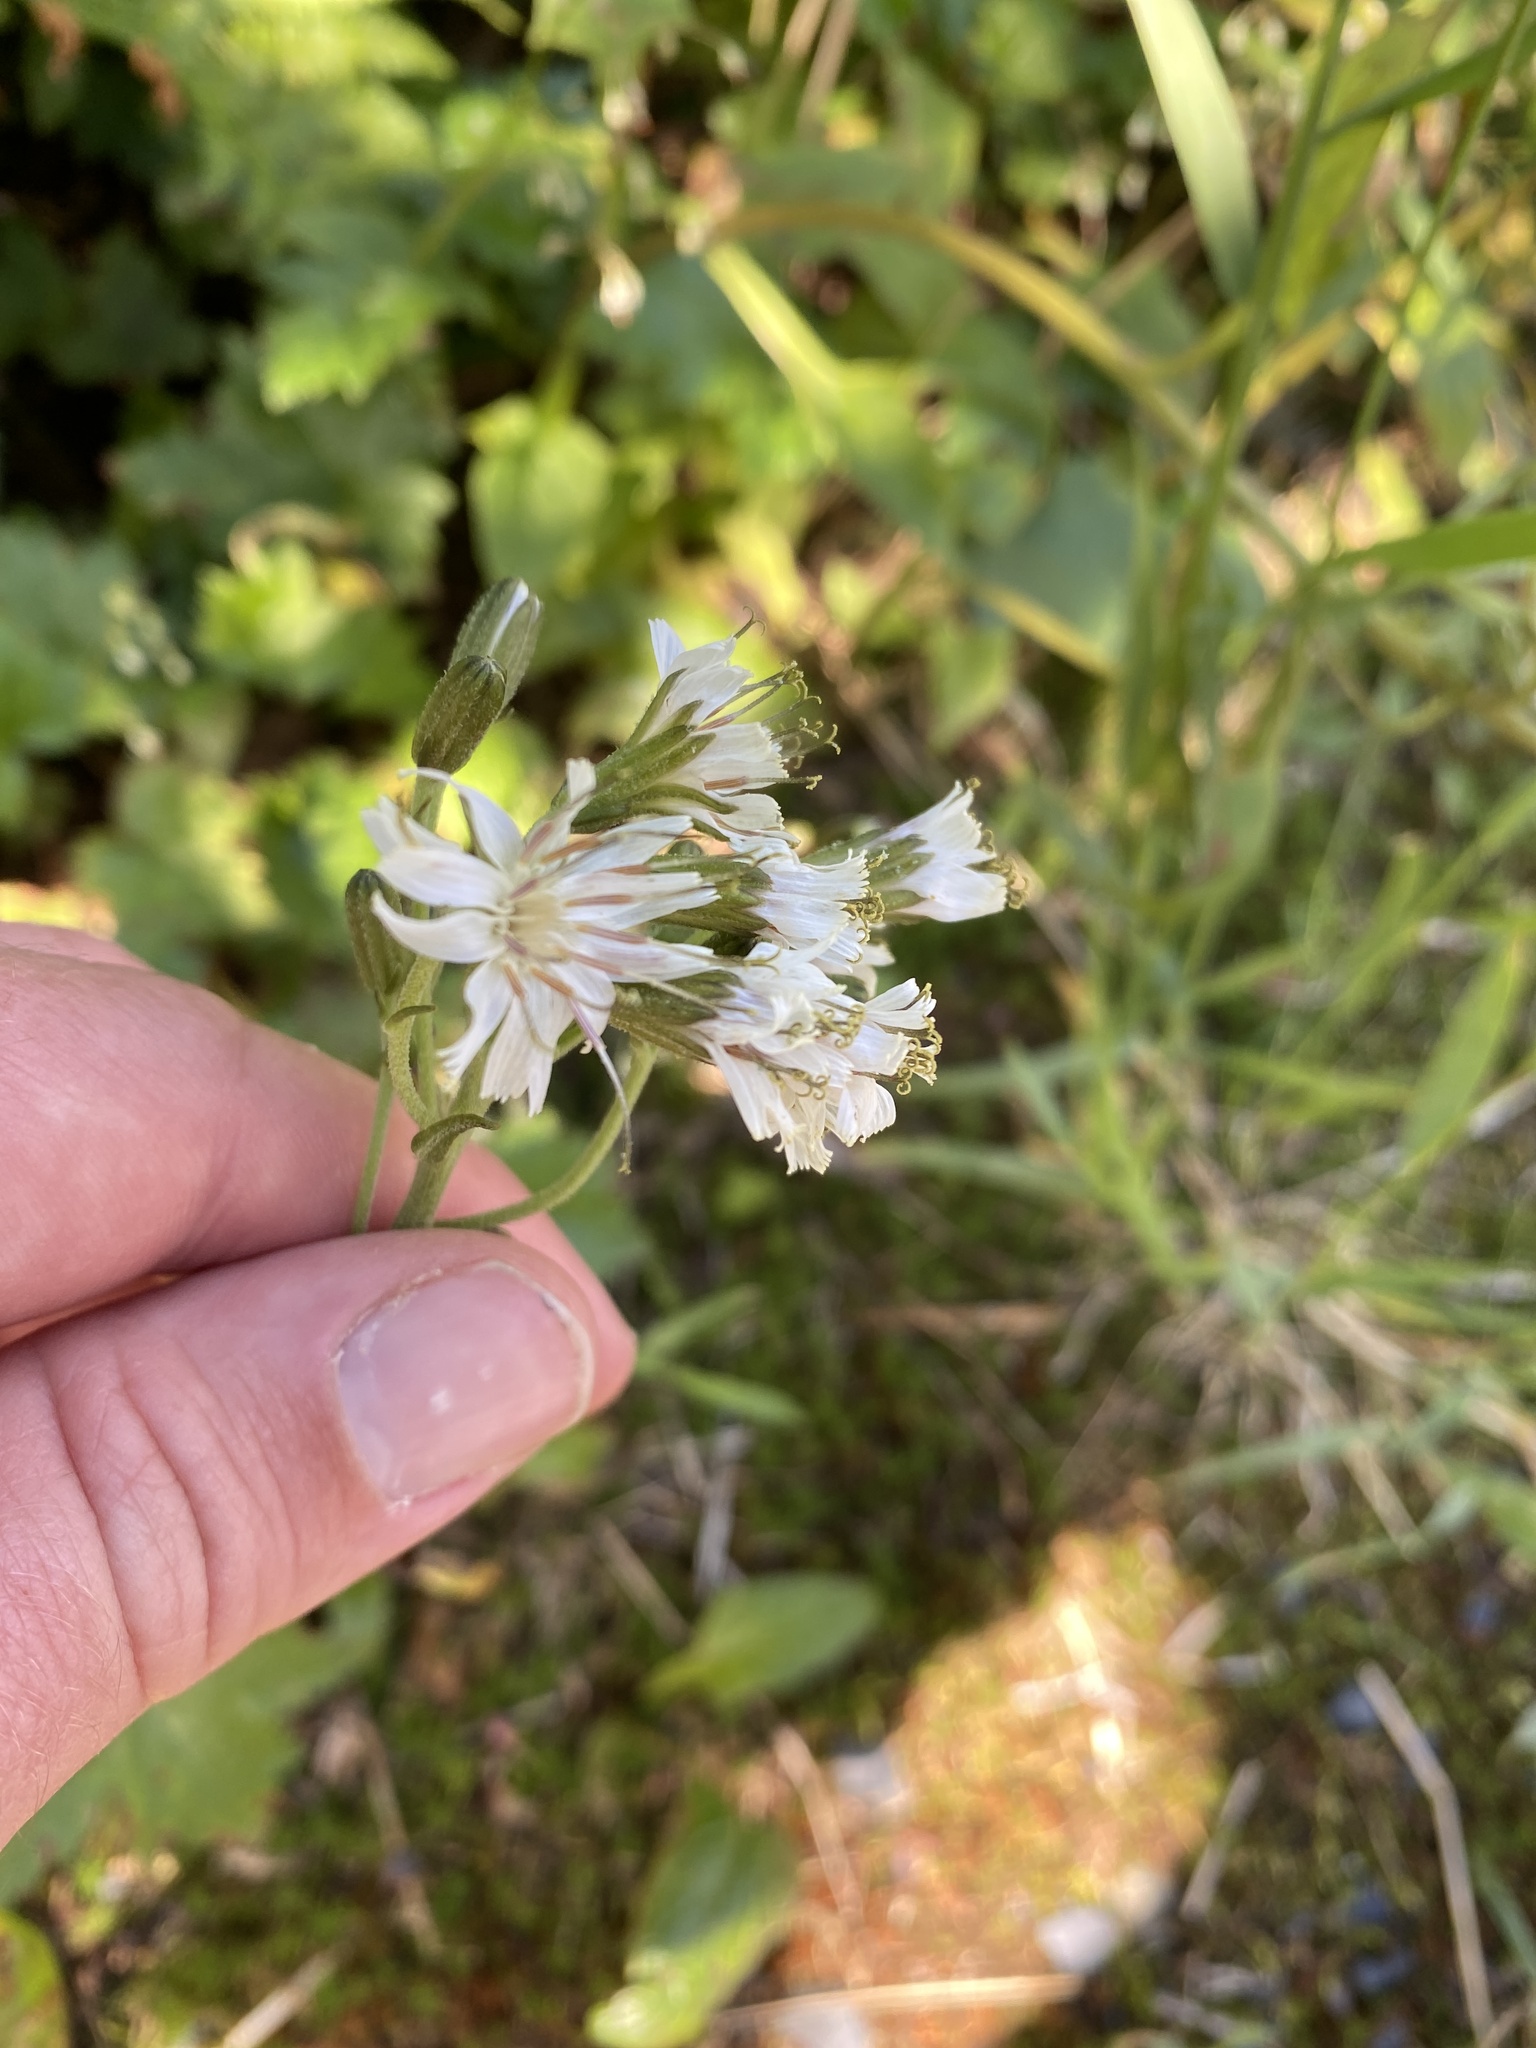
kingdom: Plantae
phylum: Tracheophyta
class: Magnoliopsida
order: Asterales
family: Asteraceae
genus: Nabalus
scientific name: Nabalus hastatus
